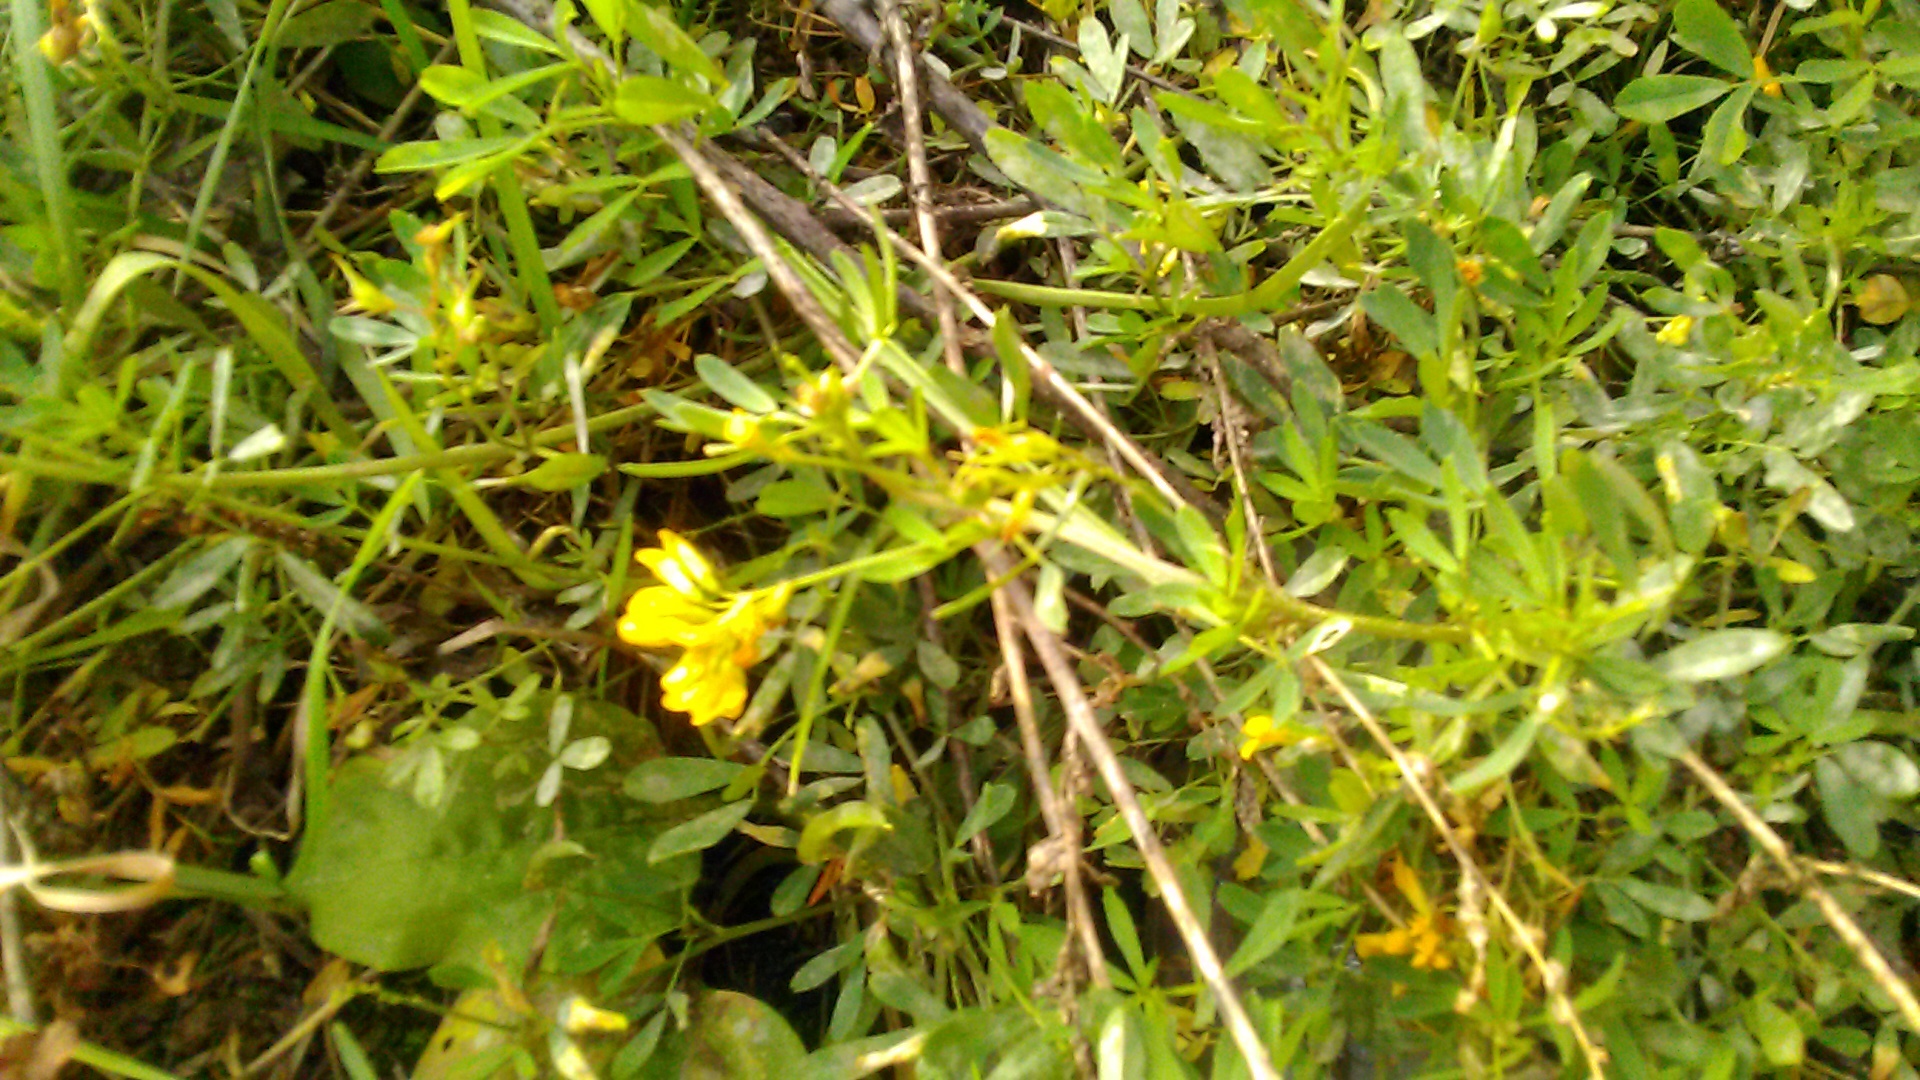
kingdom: Plantae
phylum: Tracheophyta
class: Magnoliopsida
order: Fabales
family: Fabaceae
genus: Medicago
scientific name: Medicago falcata
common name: Sickle medick
